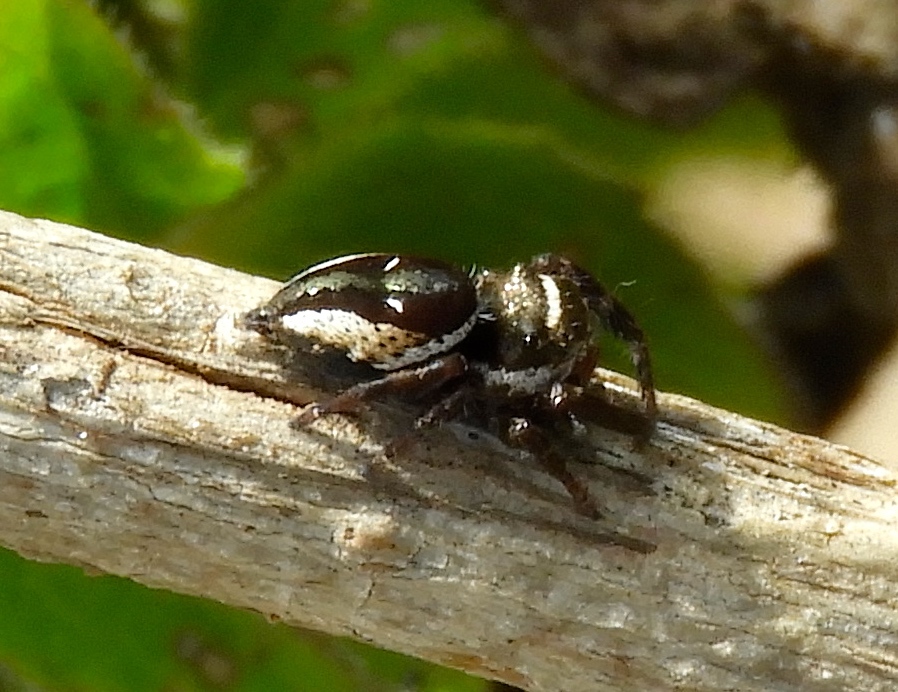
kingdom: Animalia
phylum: Arthropoda
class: Arachnida
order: Araneae
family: Salticidae
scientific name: Salticidae
